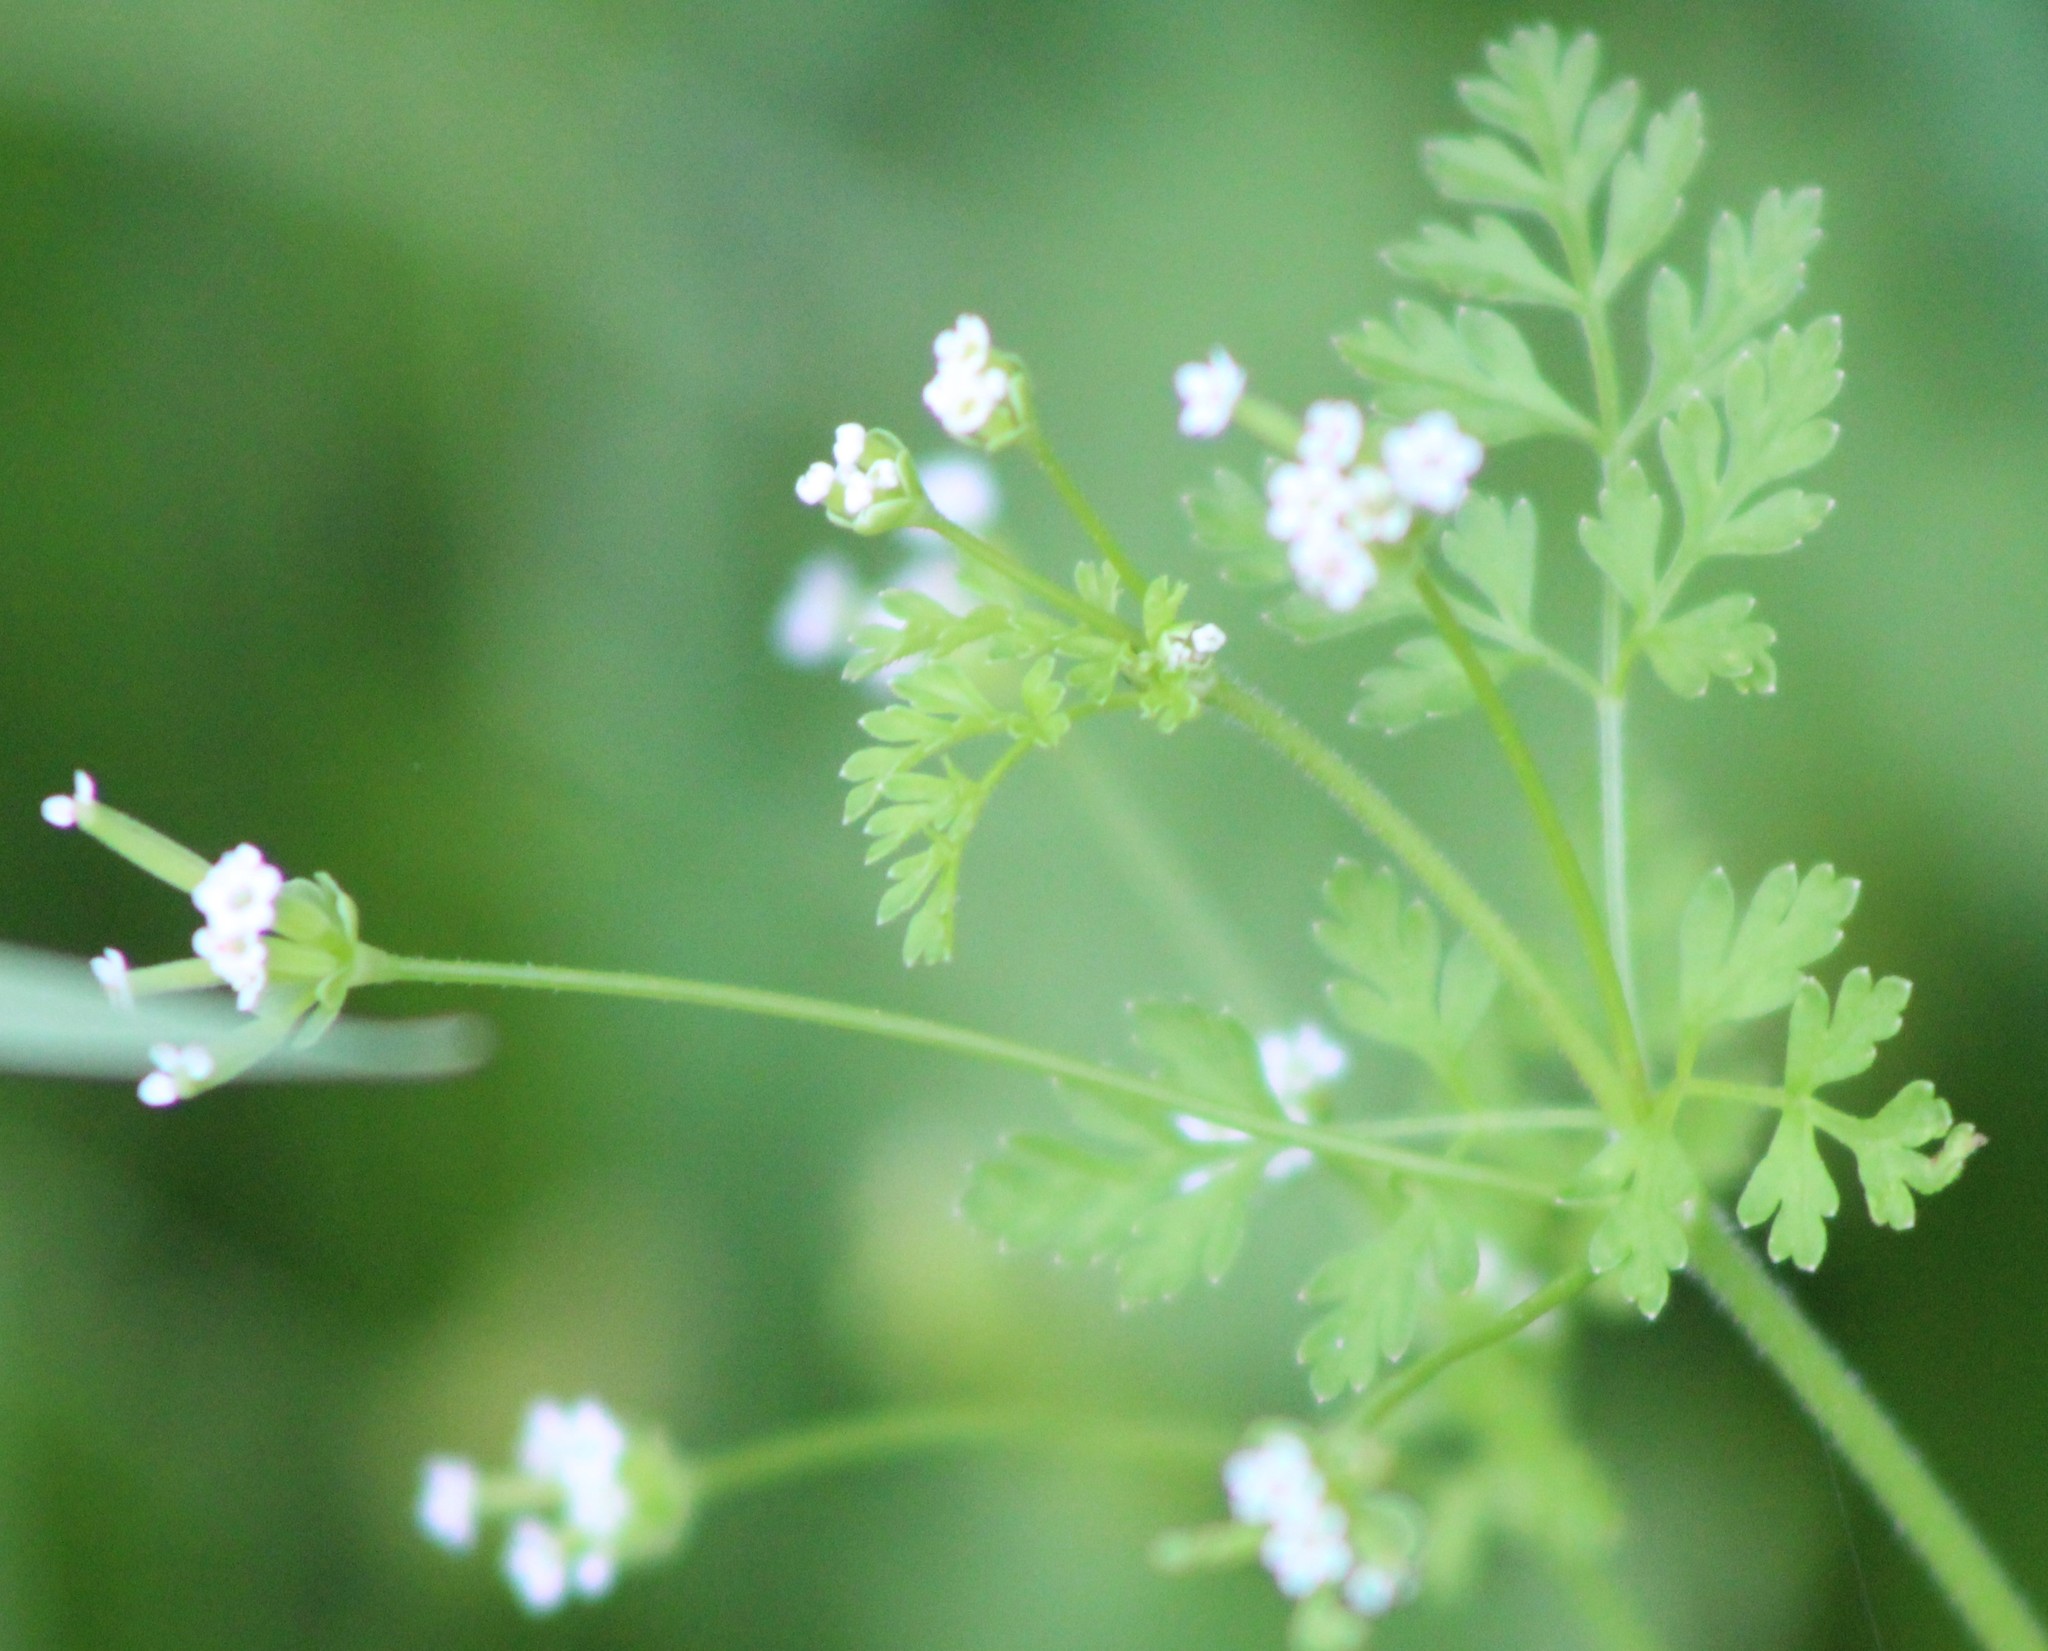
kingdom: Plantae
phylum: Tracheophyta
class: Magnoliopsida
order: Apiales
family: Apiaceae
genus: Chaerophyllum
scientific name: Chaerophyllum tainturieri
